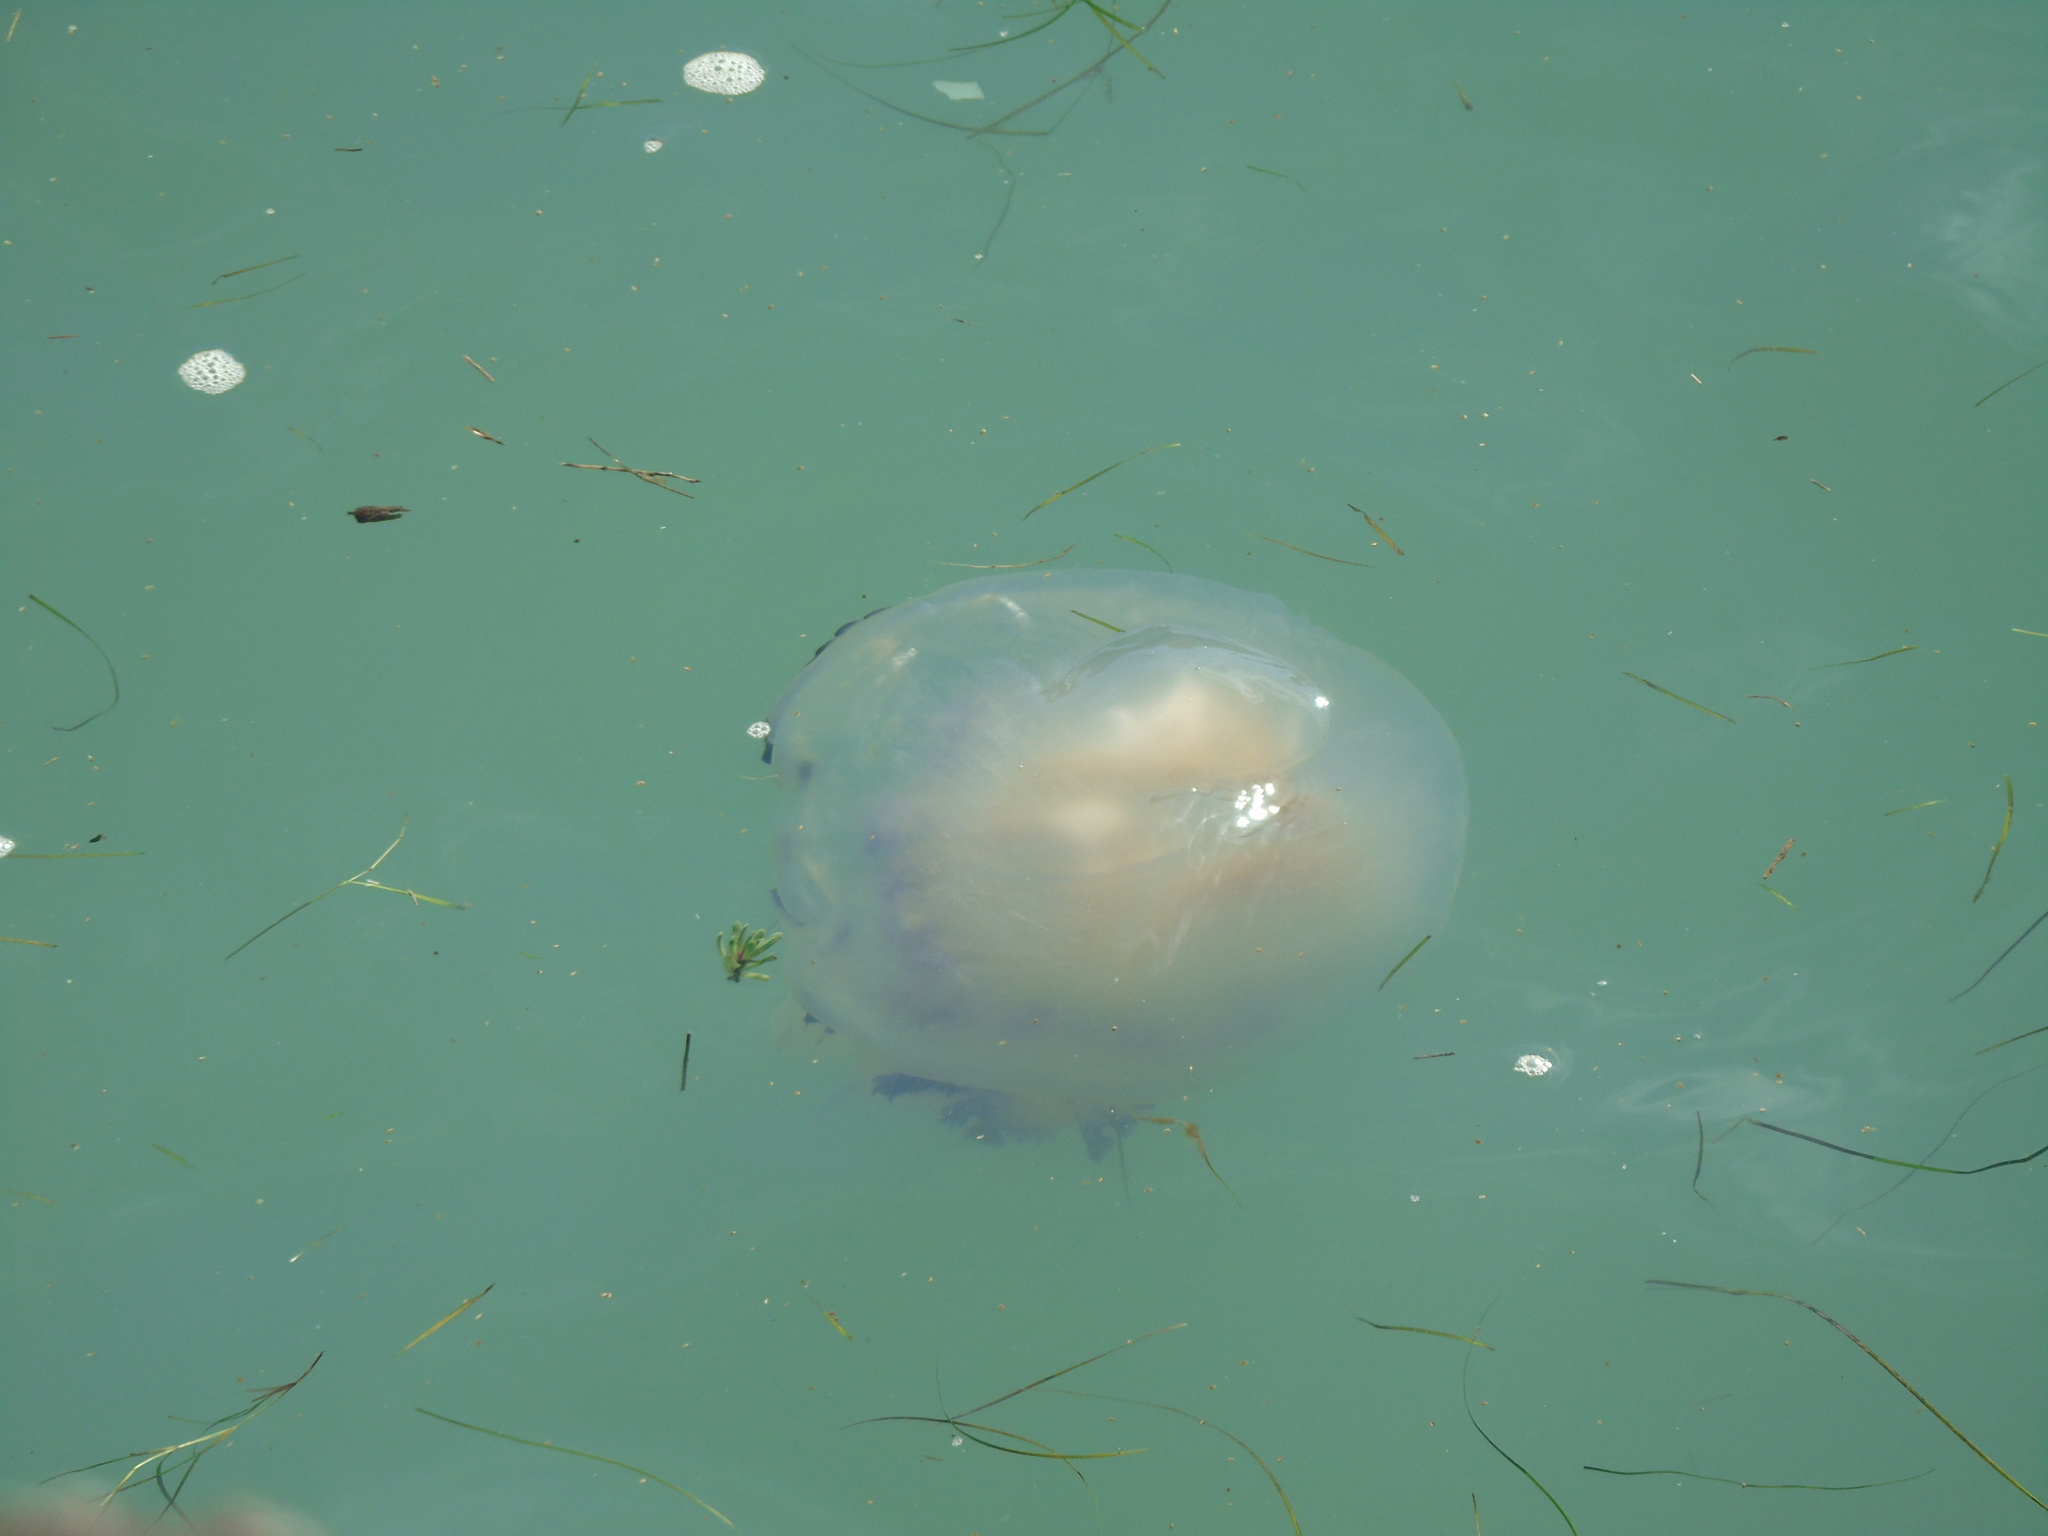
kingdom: Animalia
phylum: Cnidaria
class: Scyphozoa
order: Rhizostomeae
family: Rhizostomatidae
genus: Rhizostoma
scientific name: Rhizostoma pulmo
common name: Barrel jellyfish
